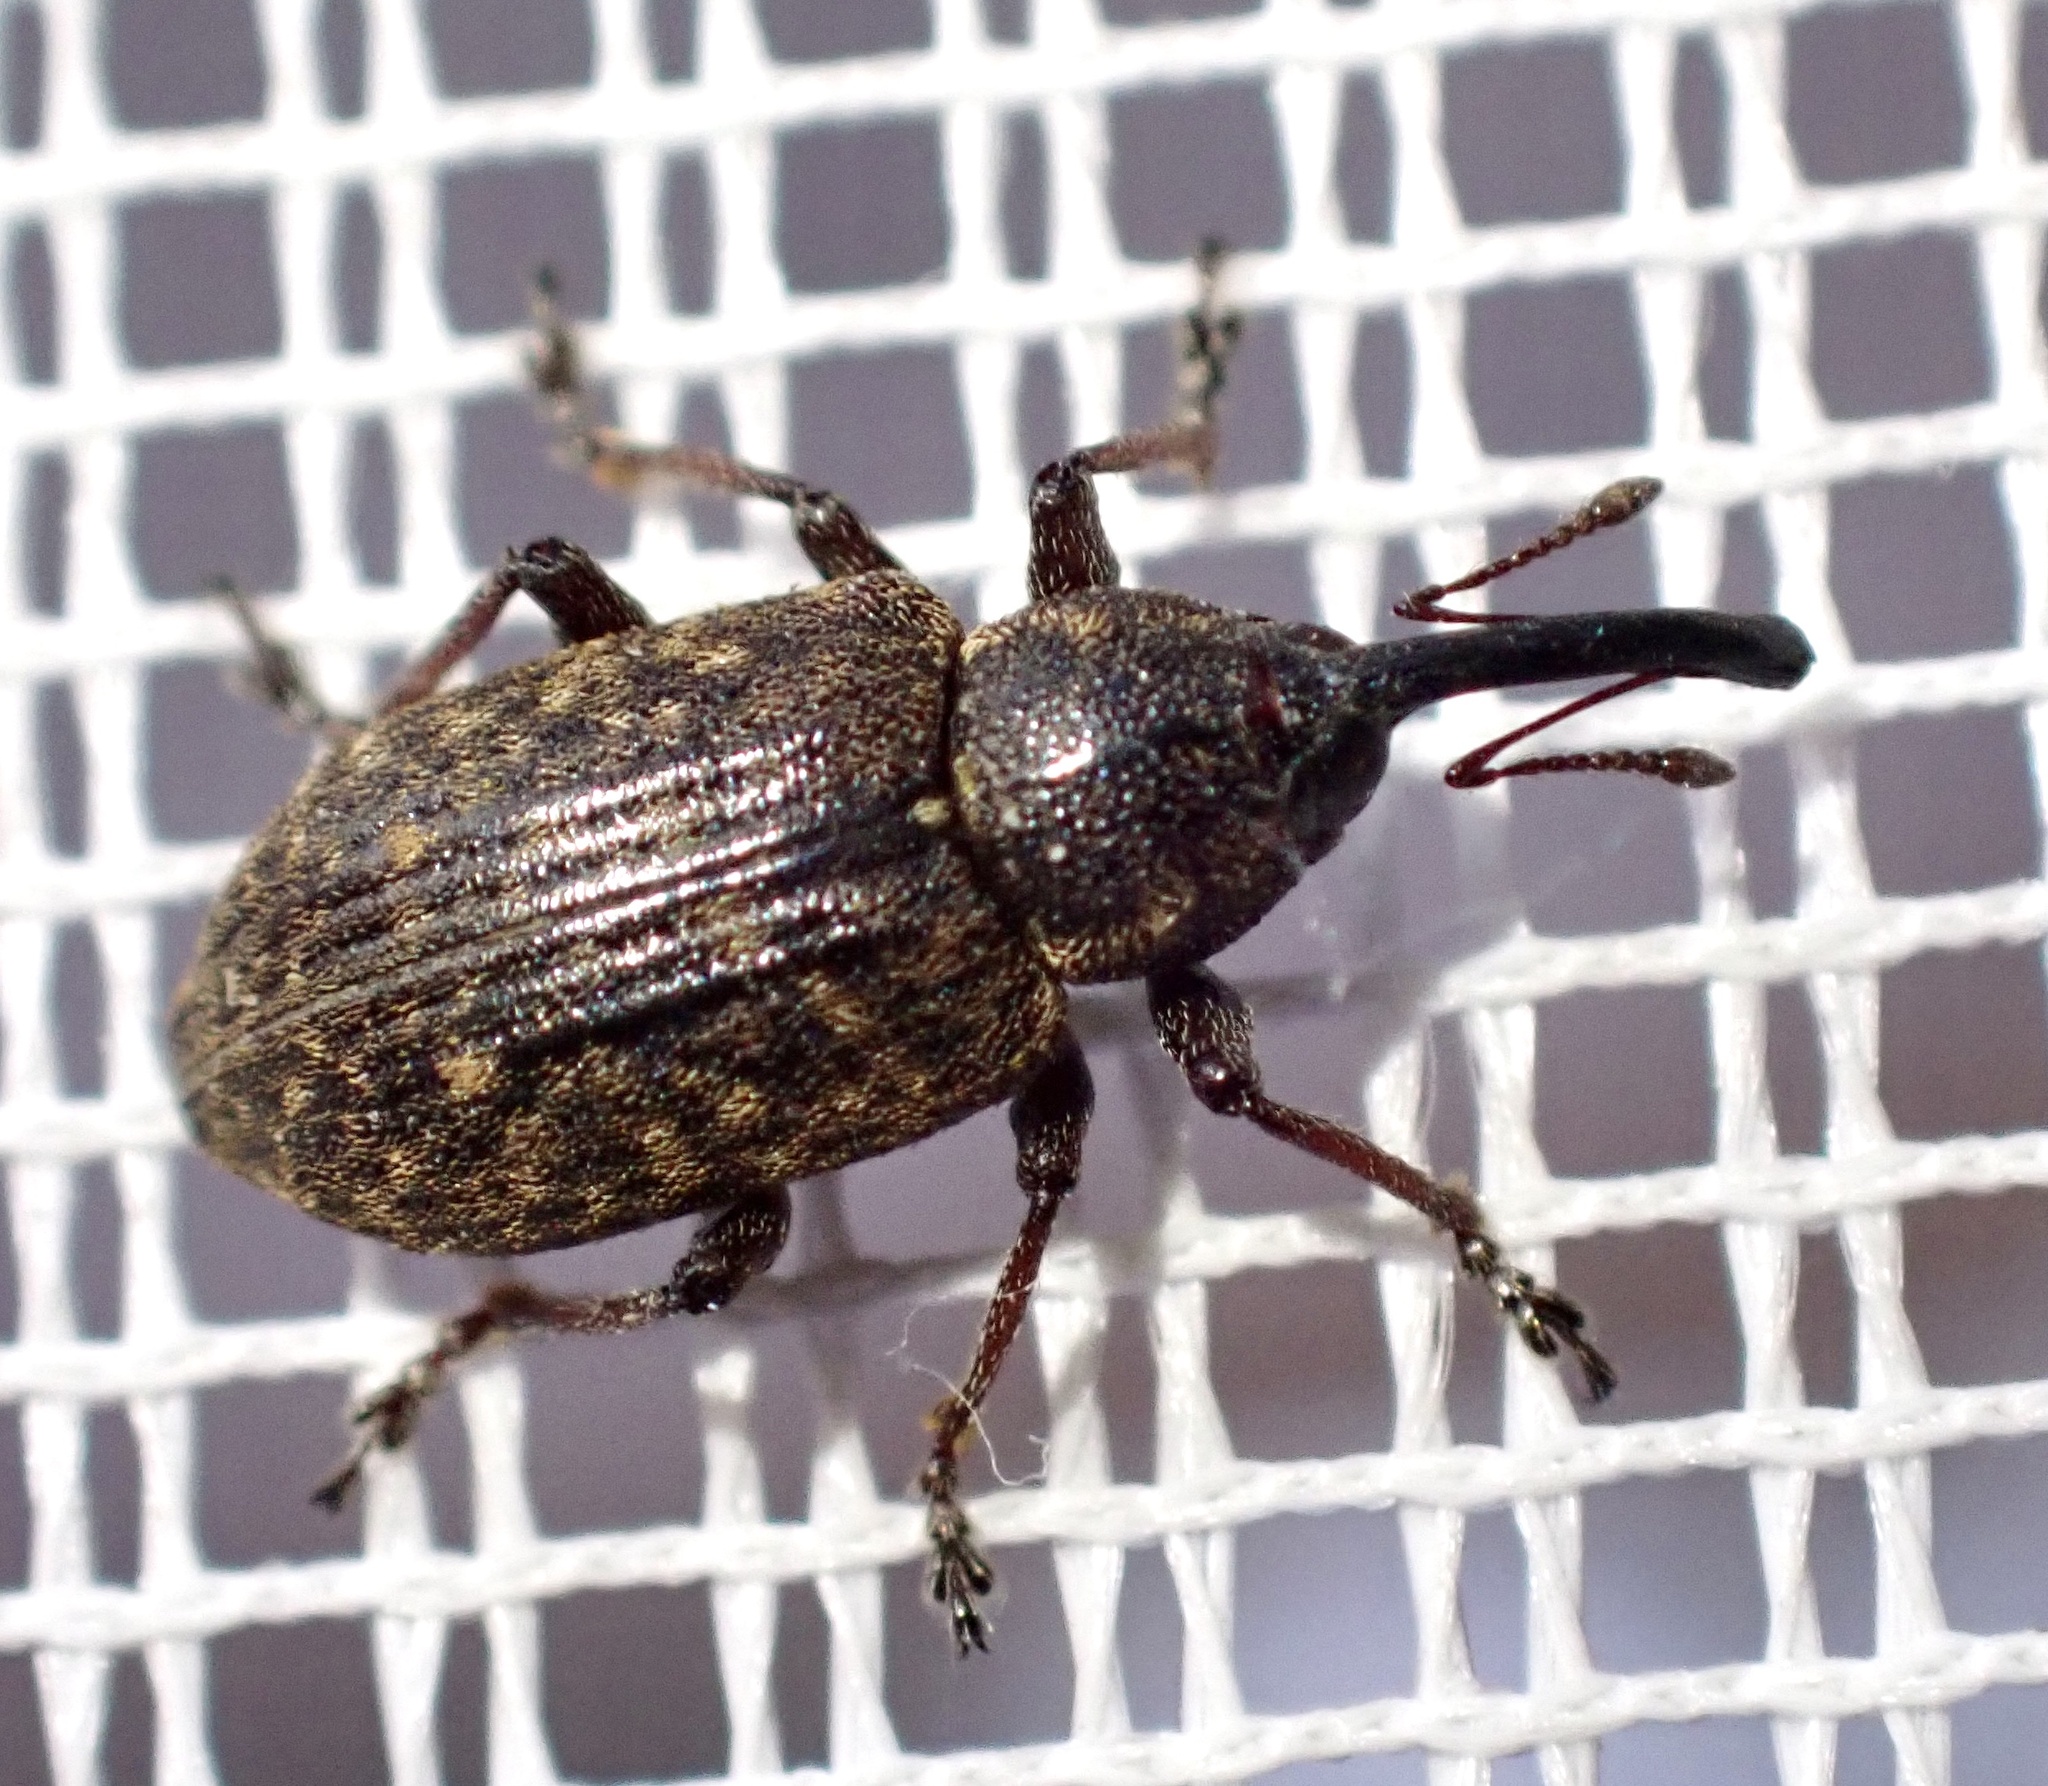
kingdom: Animalia
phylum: Arthropoda
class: Insecta
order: Coleoptera
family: Brachyceridae
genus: Notaris
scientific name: Notaris scirpi
